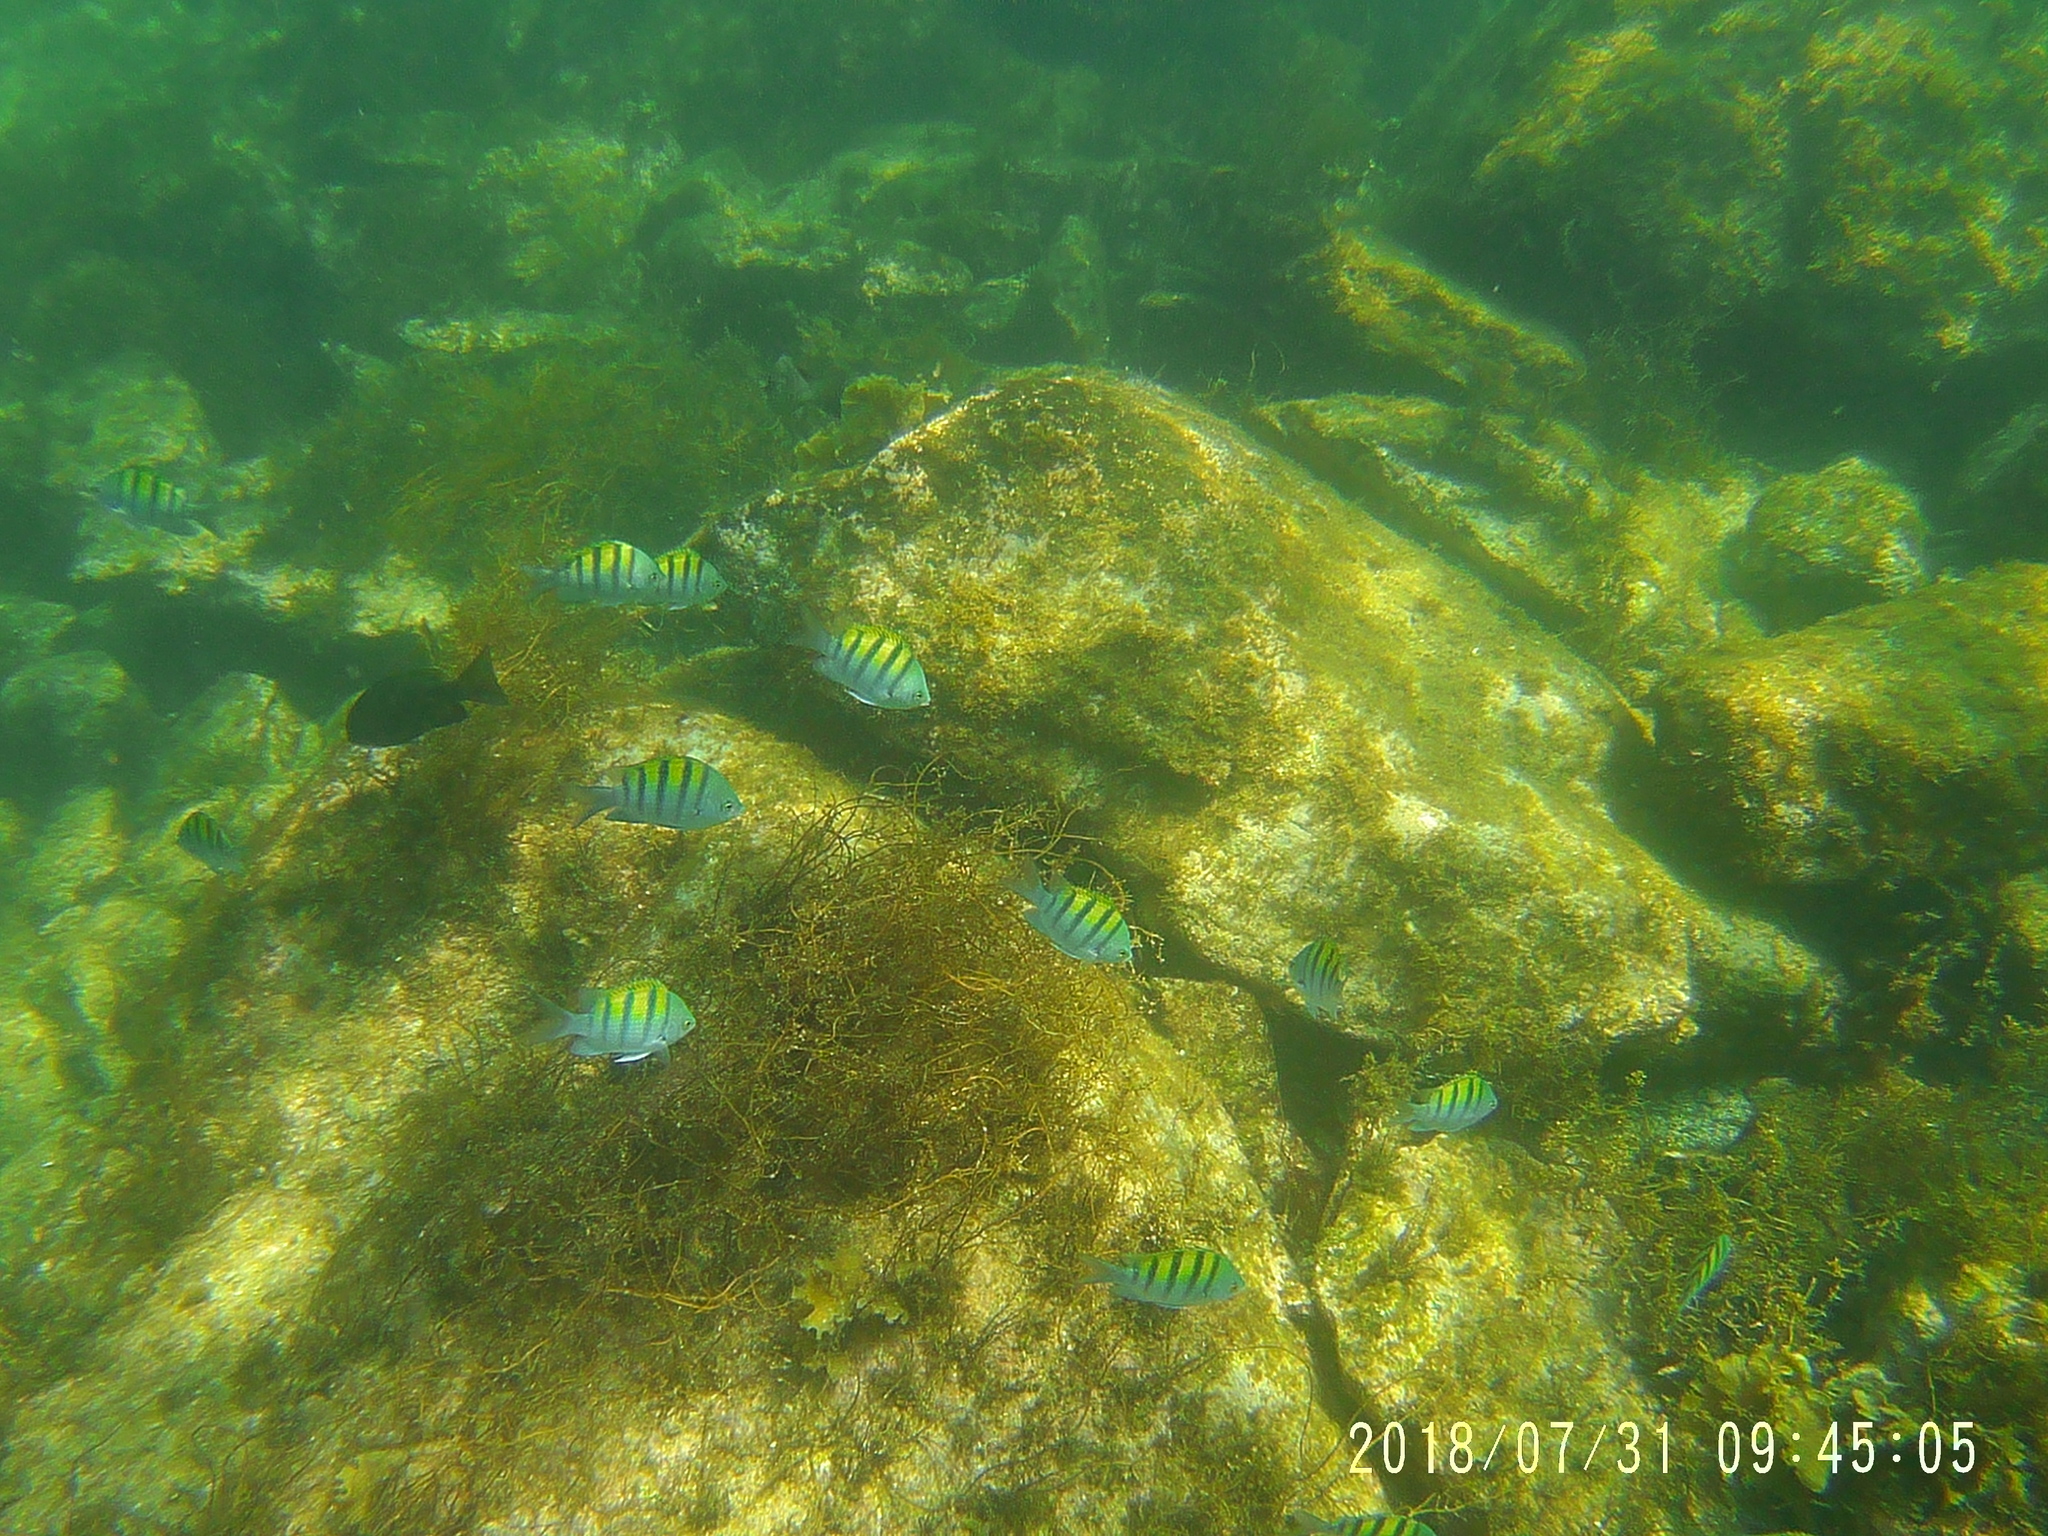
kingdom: Animalia
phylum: Chordata
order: Perciformes
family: Pomacentridae
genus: Abudefduf
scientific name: Abudefduf troschelii
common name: Panamic sergeant major
